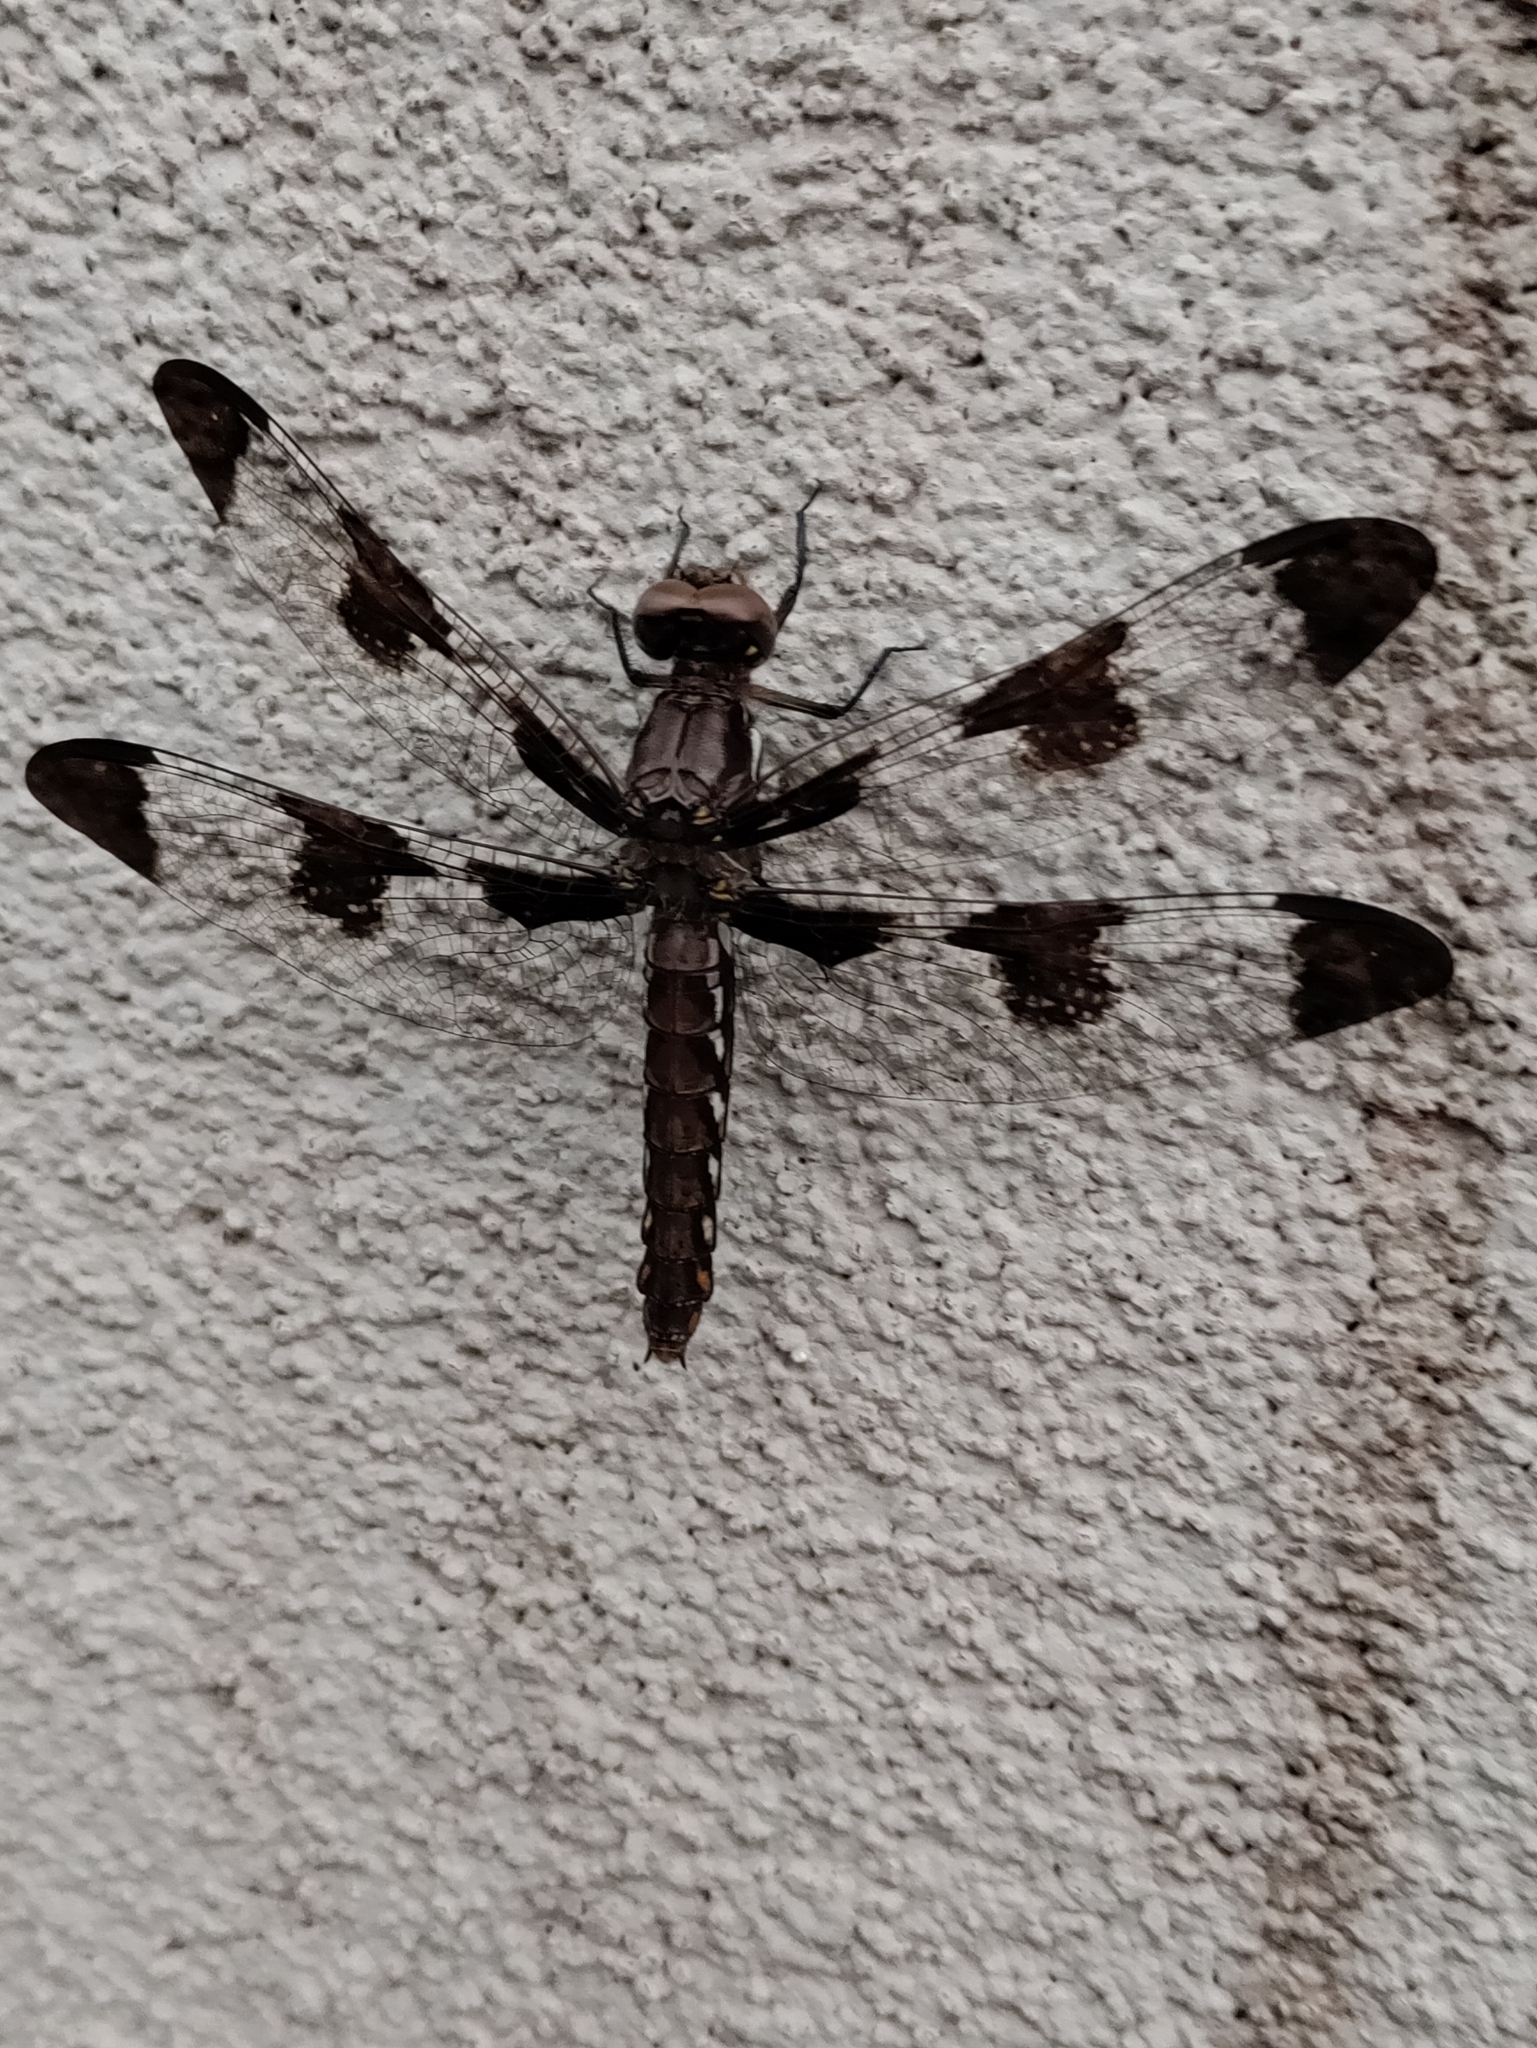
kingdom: Animalia
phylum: Arthropoda
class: Insecta
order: Odonata
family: Libellulidae
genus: Plathemis
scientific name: Plathemis lydia
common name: Common whitetail
